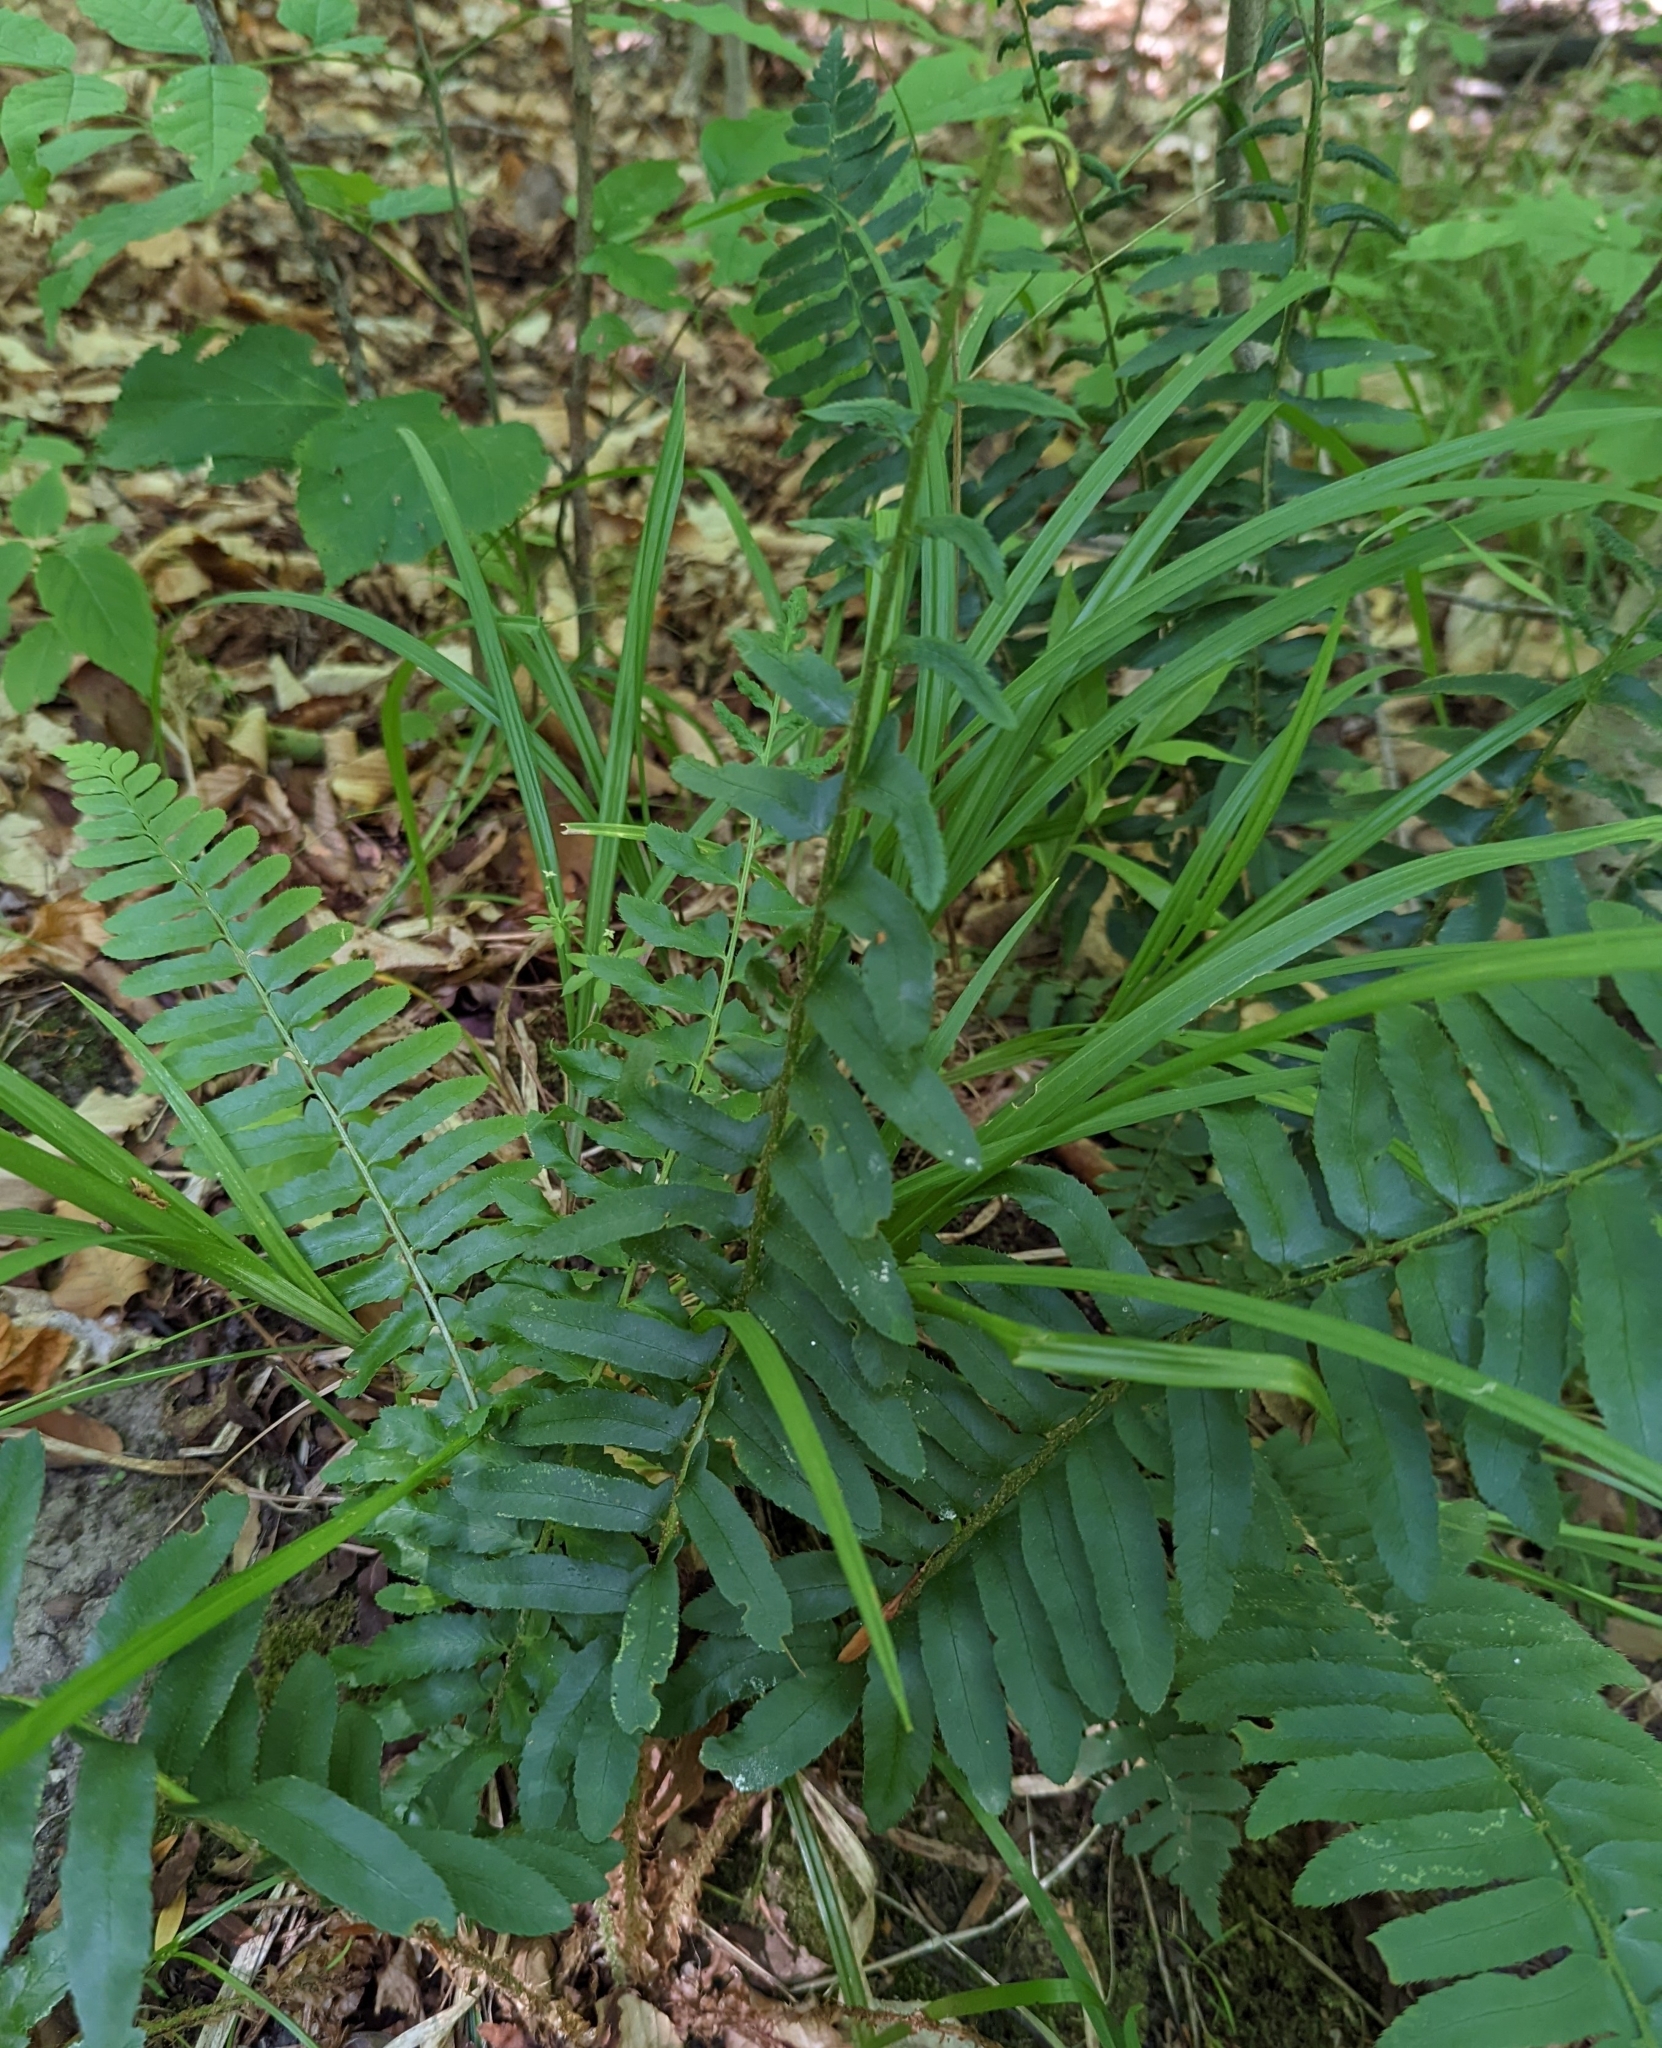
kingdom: Plantae
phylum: Tracheophyta
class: Polypodiopsida
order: Polypodiales
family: Dryopteridaceae
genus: Polystichum
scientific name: Polystichum acrostichoides
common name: Christmas fern
